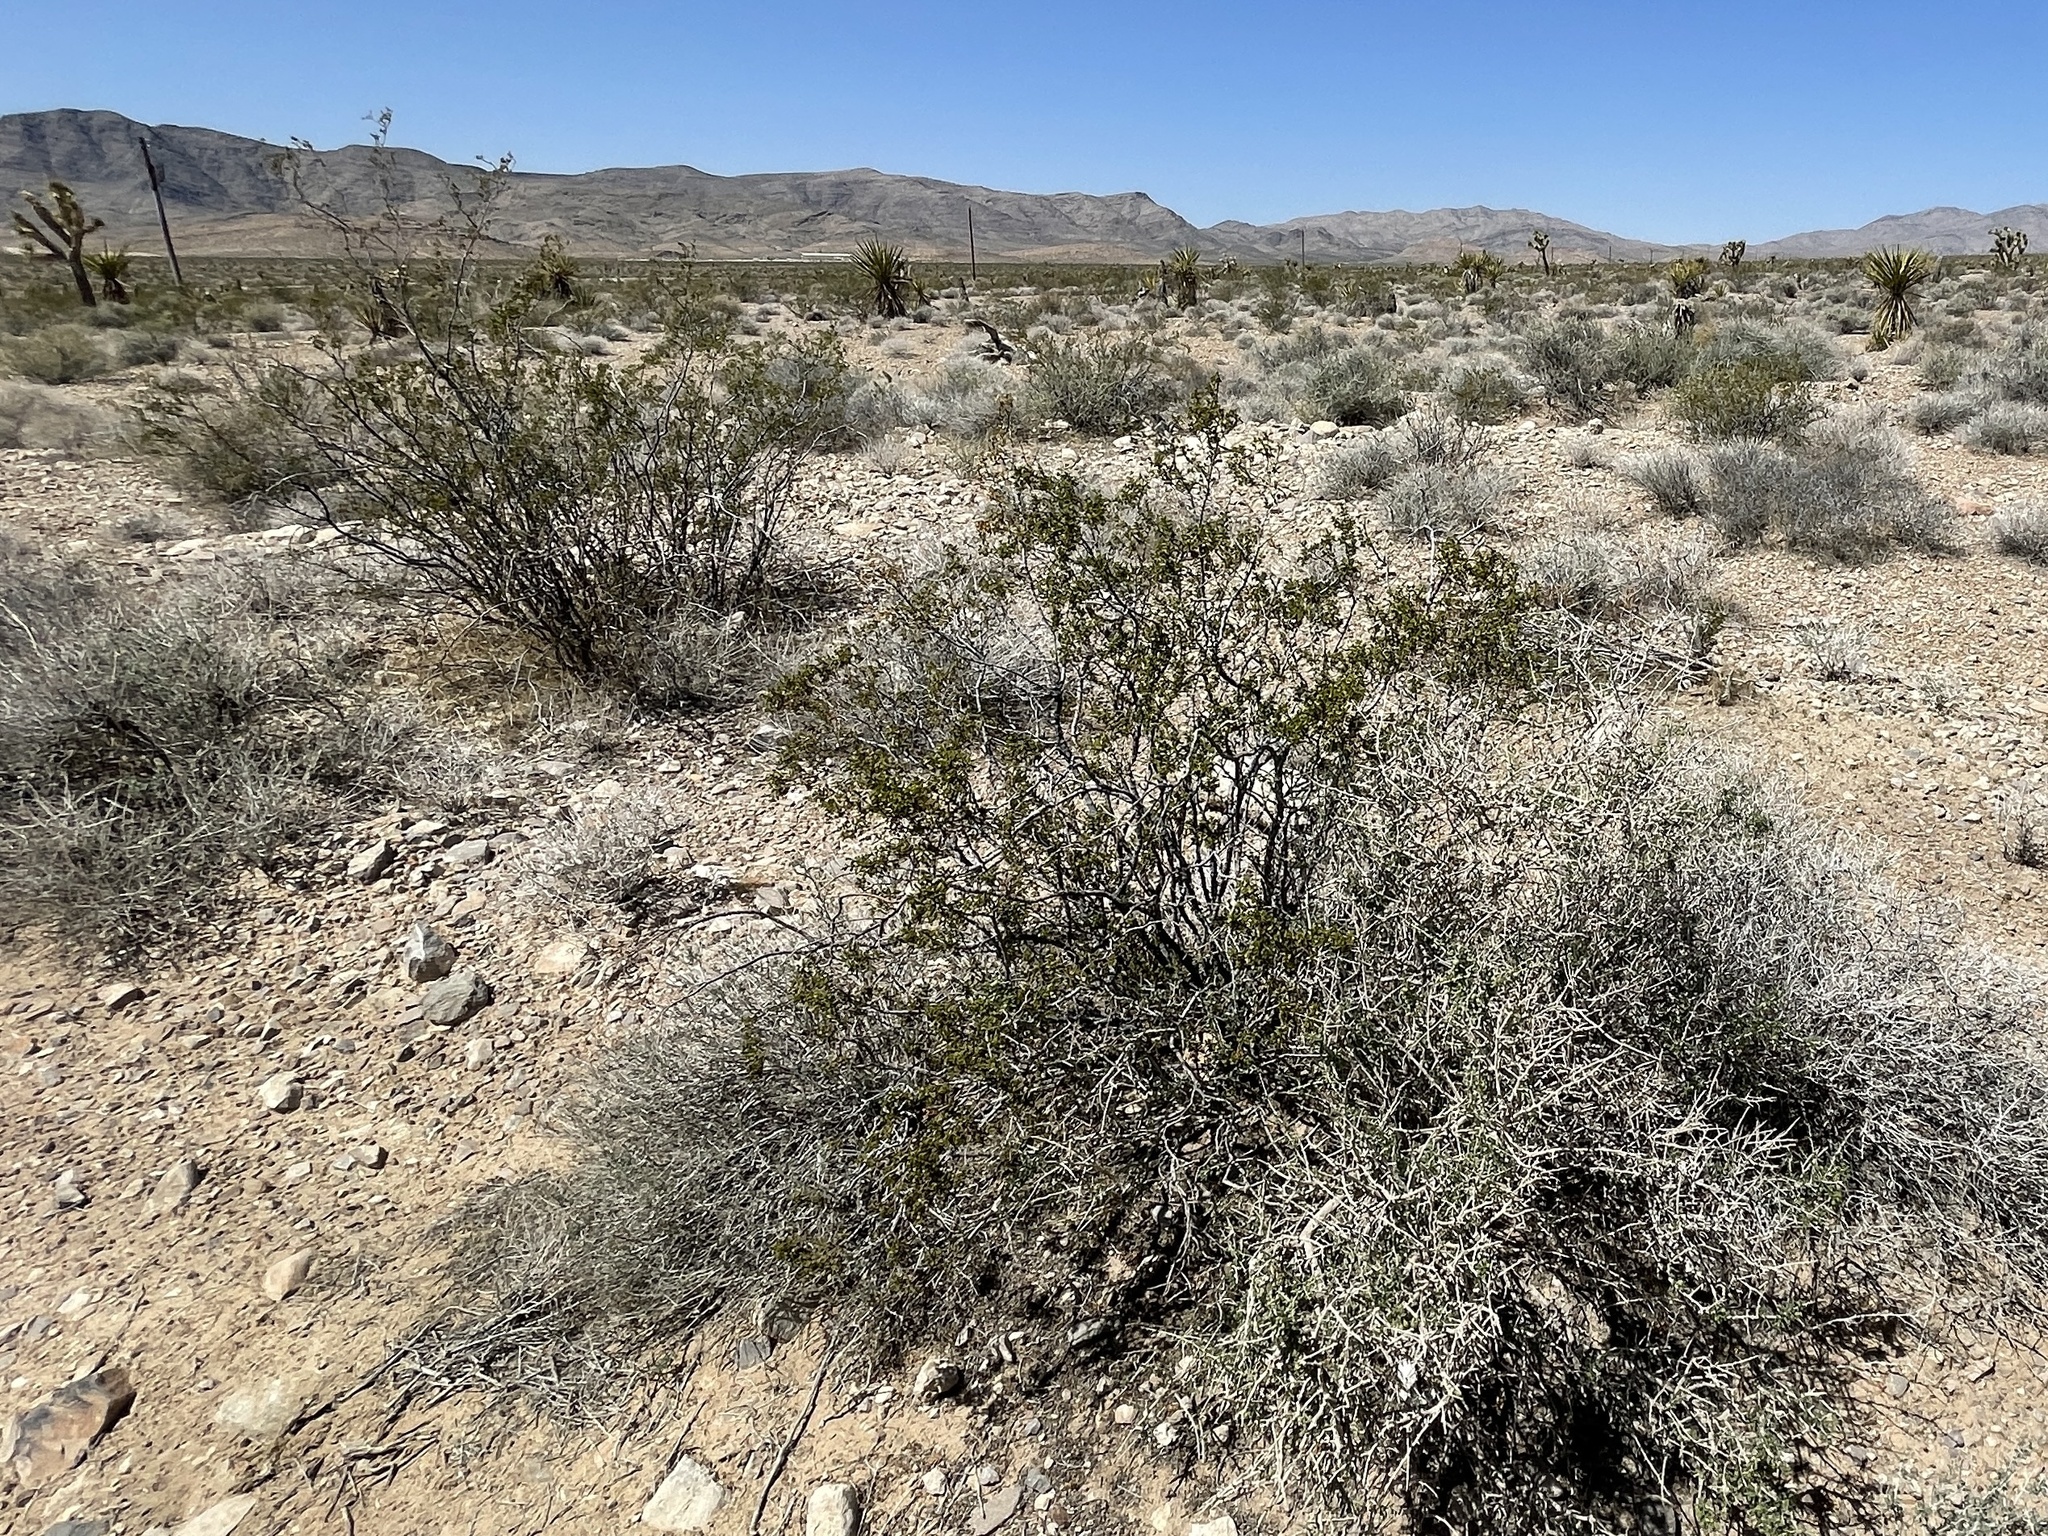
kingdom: Plantae
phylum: Tracheophyta
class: Magnoliopsida
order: Zygophyllales
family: Zygophyllaceae
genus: Larrea
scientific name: Larrea tridentata
